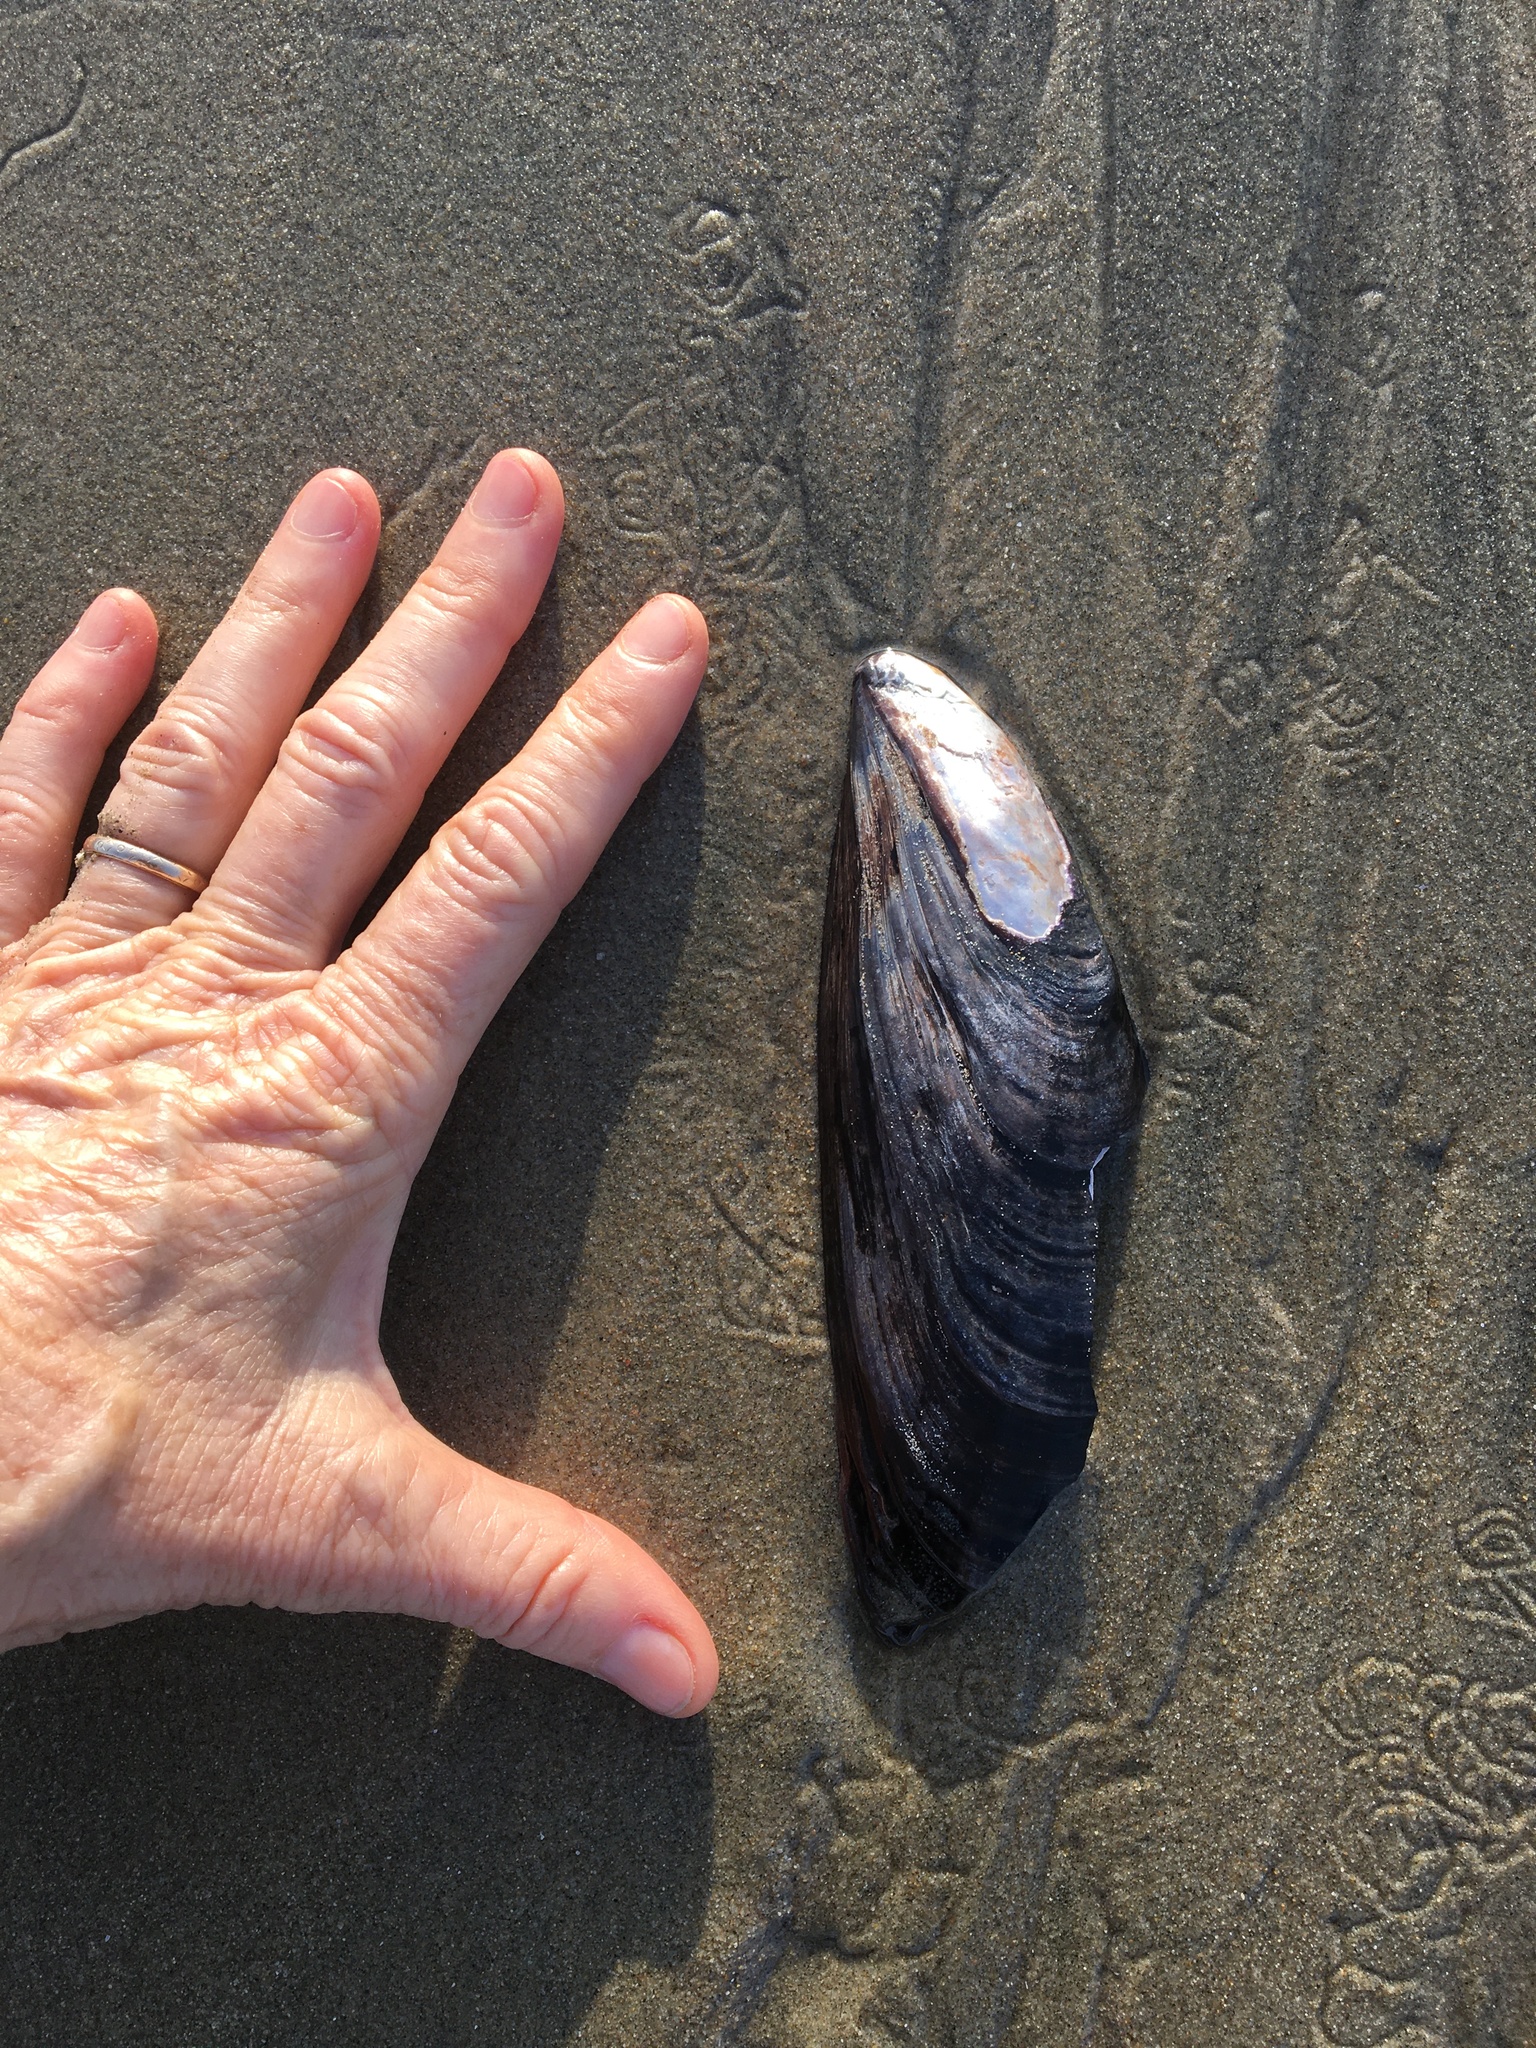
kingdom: Animalia
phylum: Mollusca
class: Bivalvia
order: Mytilida
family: Mytilidae
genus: Mytilus
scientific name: Mytilus californianus
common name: California mussel
